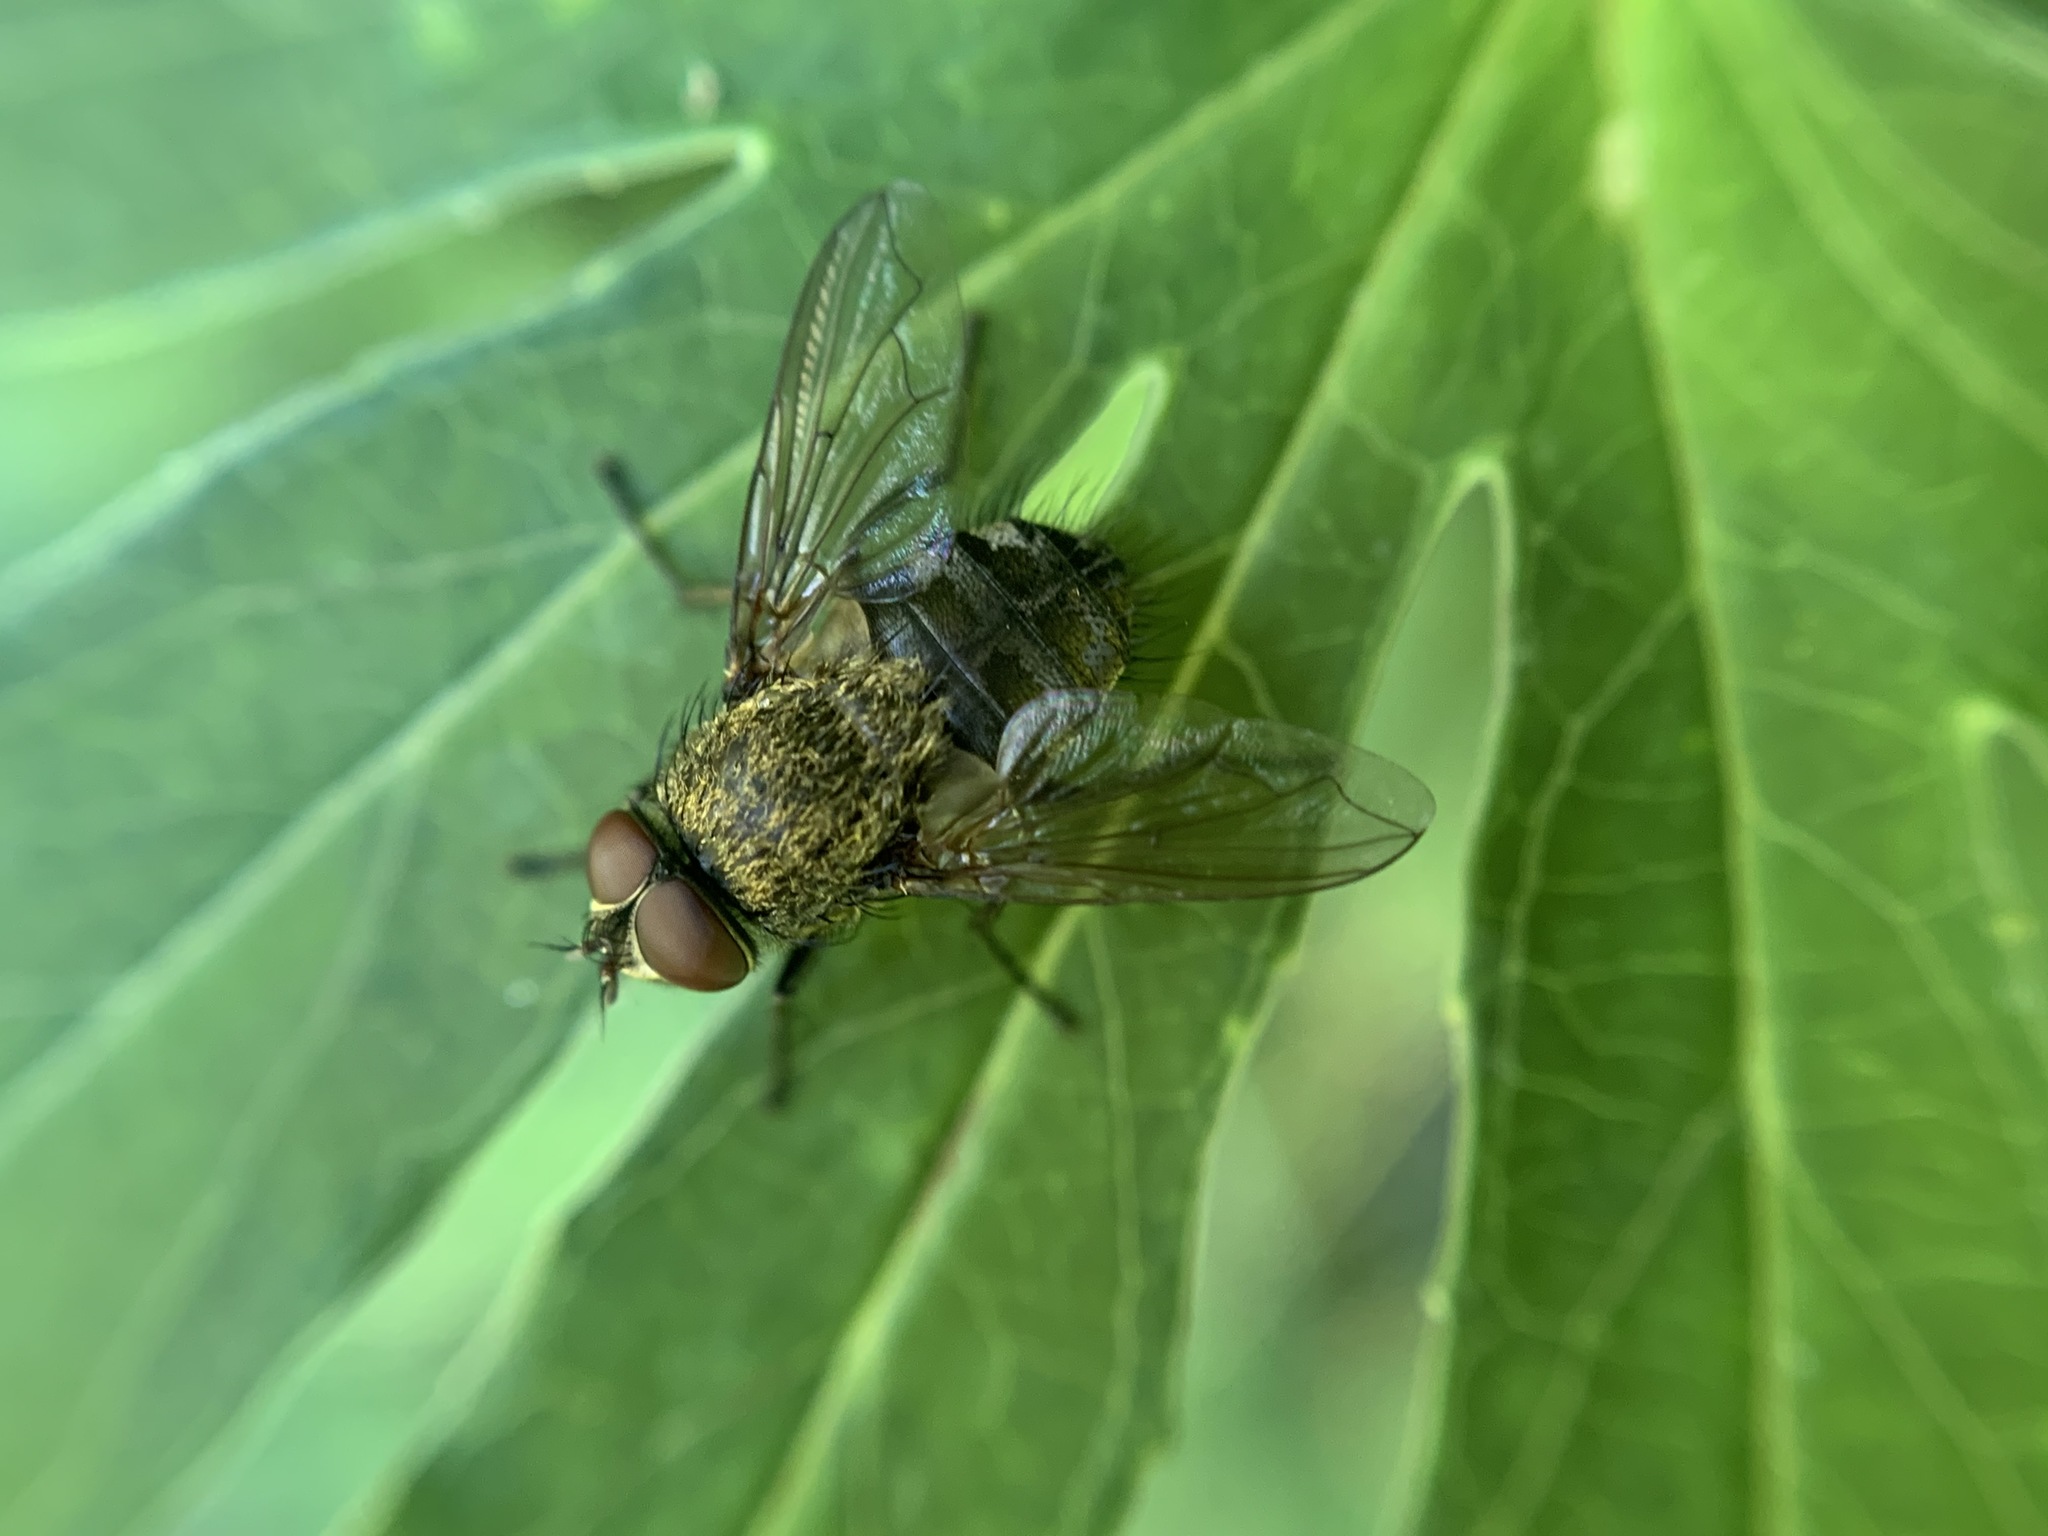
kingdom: Animalia
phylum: Arthropoda
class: Insecta
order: Diptera
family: Polleniidae
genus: Pollenia
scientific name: Pollenia
